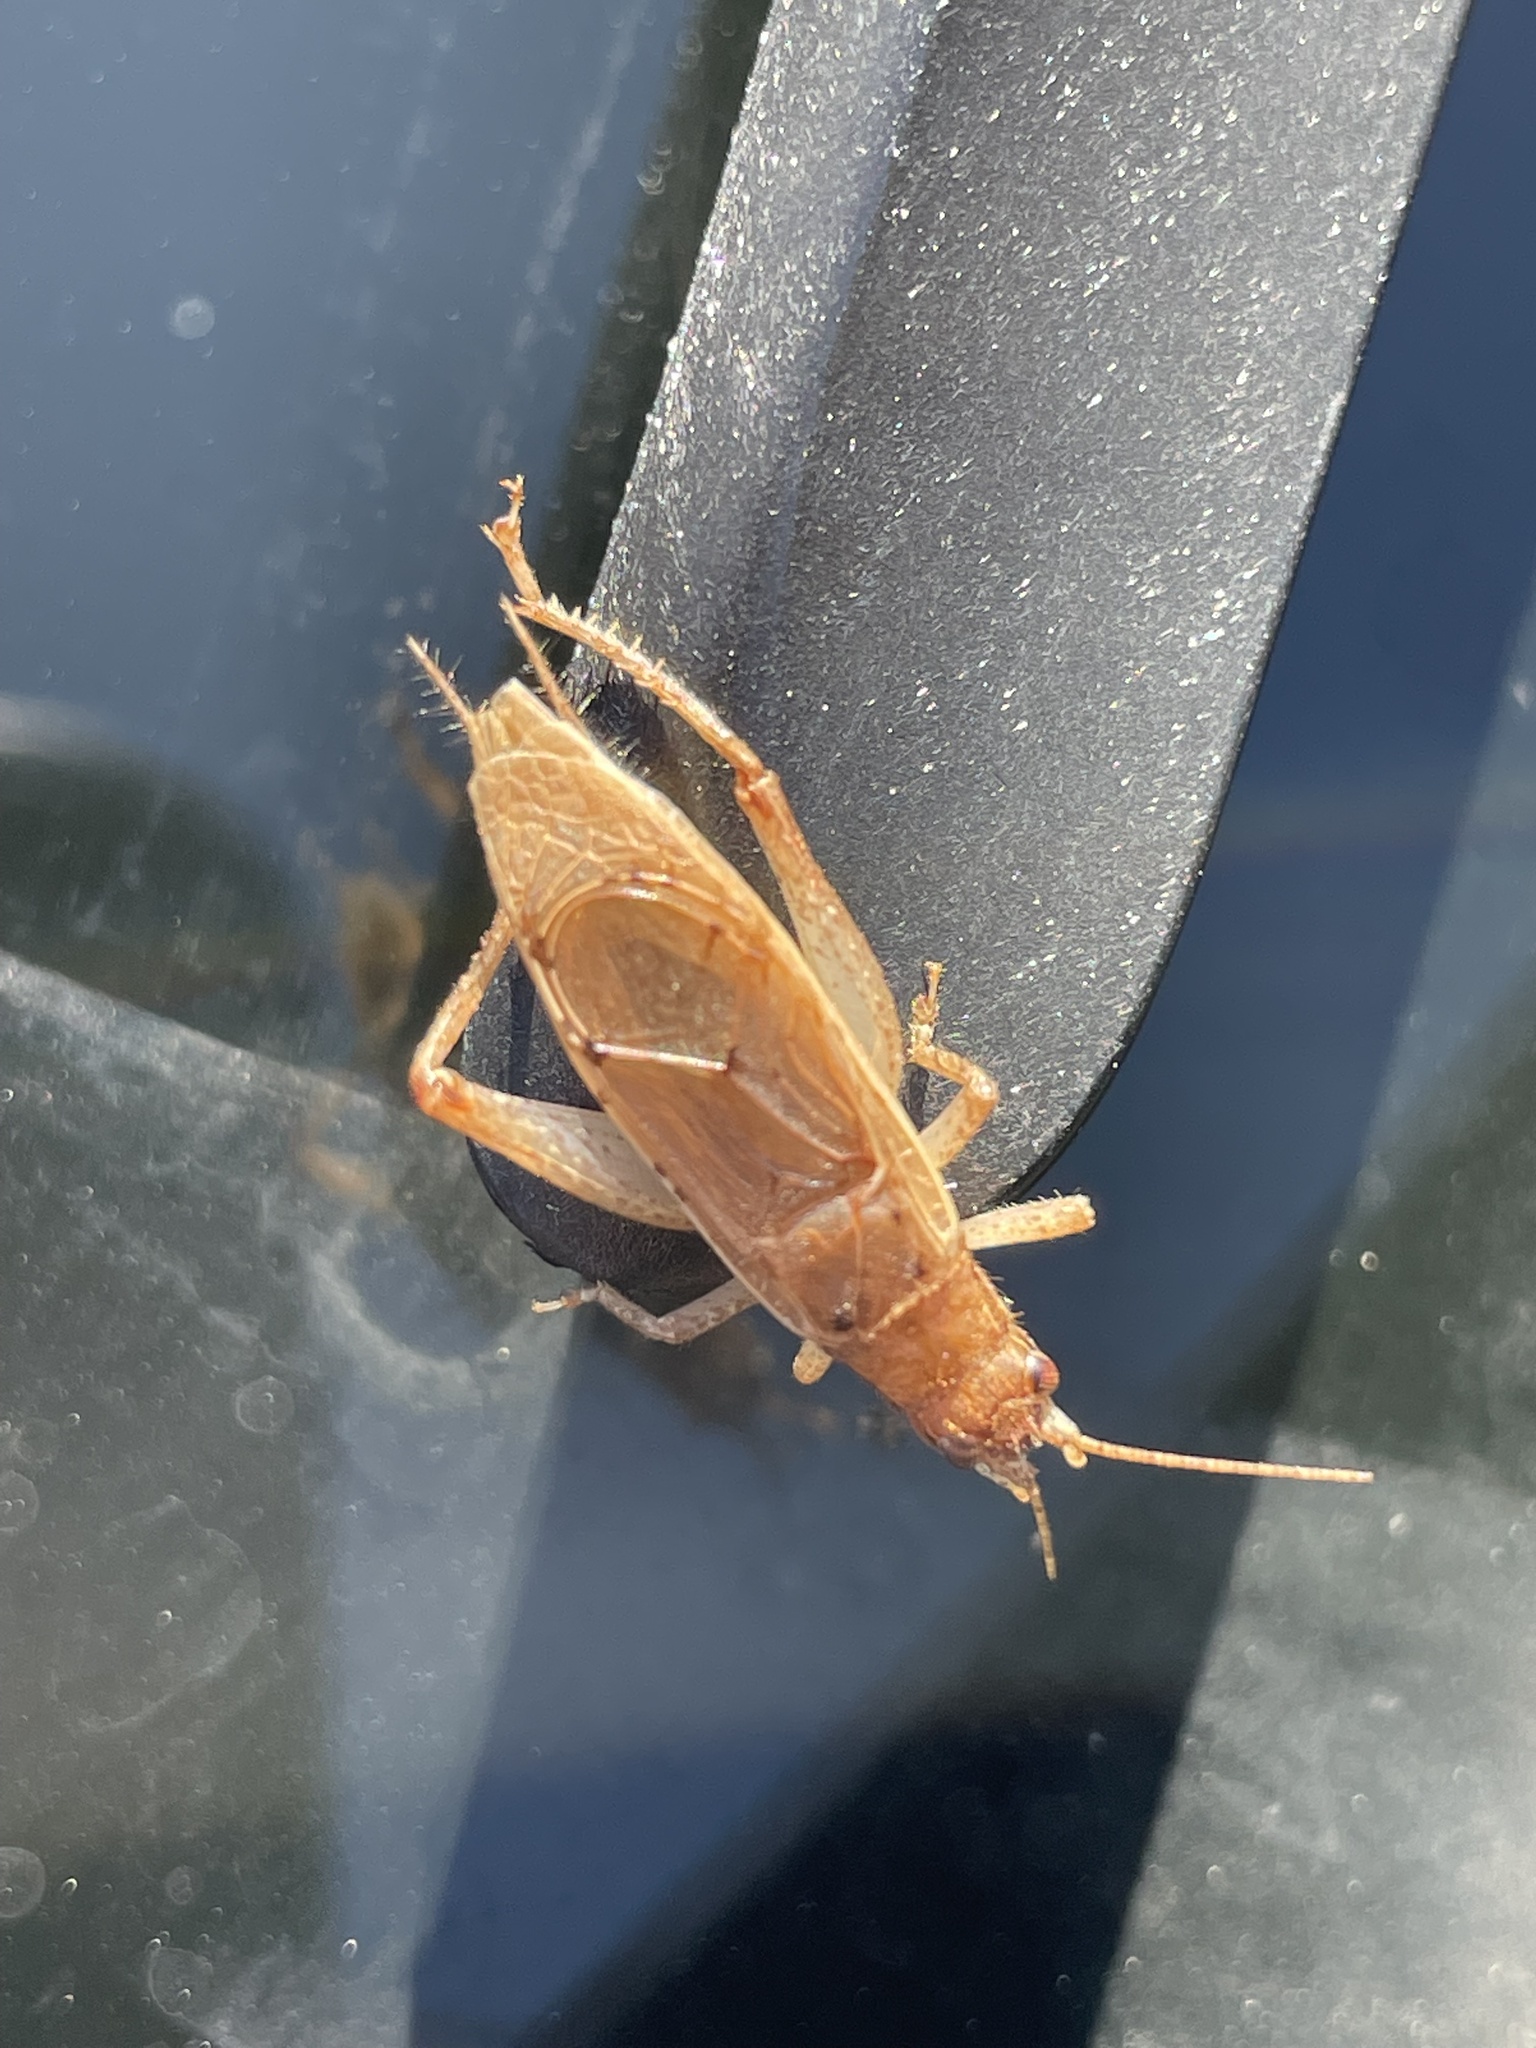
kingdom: Animalia
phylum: Arthropoda
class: Insecta
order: Orthoptera
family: Gryllidae
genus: Hapithus
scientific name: Hapithus saltator
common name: Jumping bush cricket
